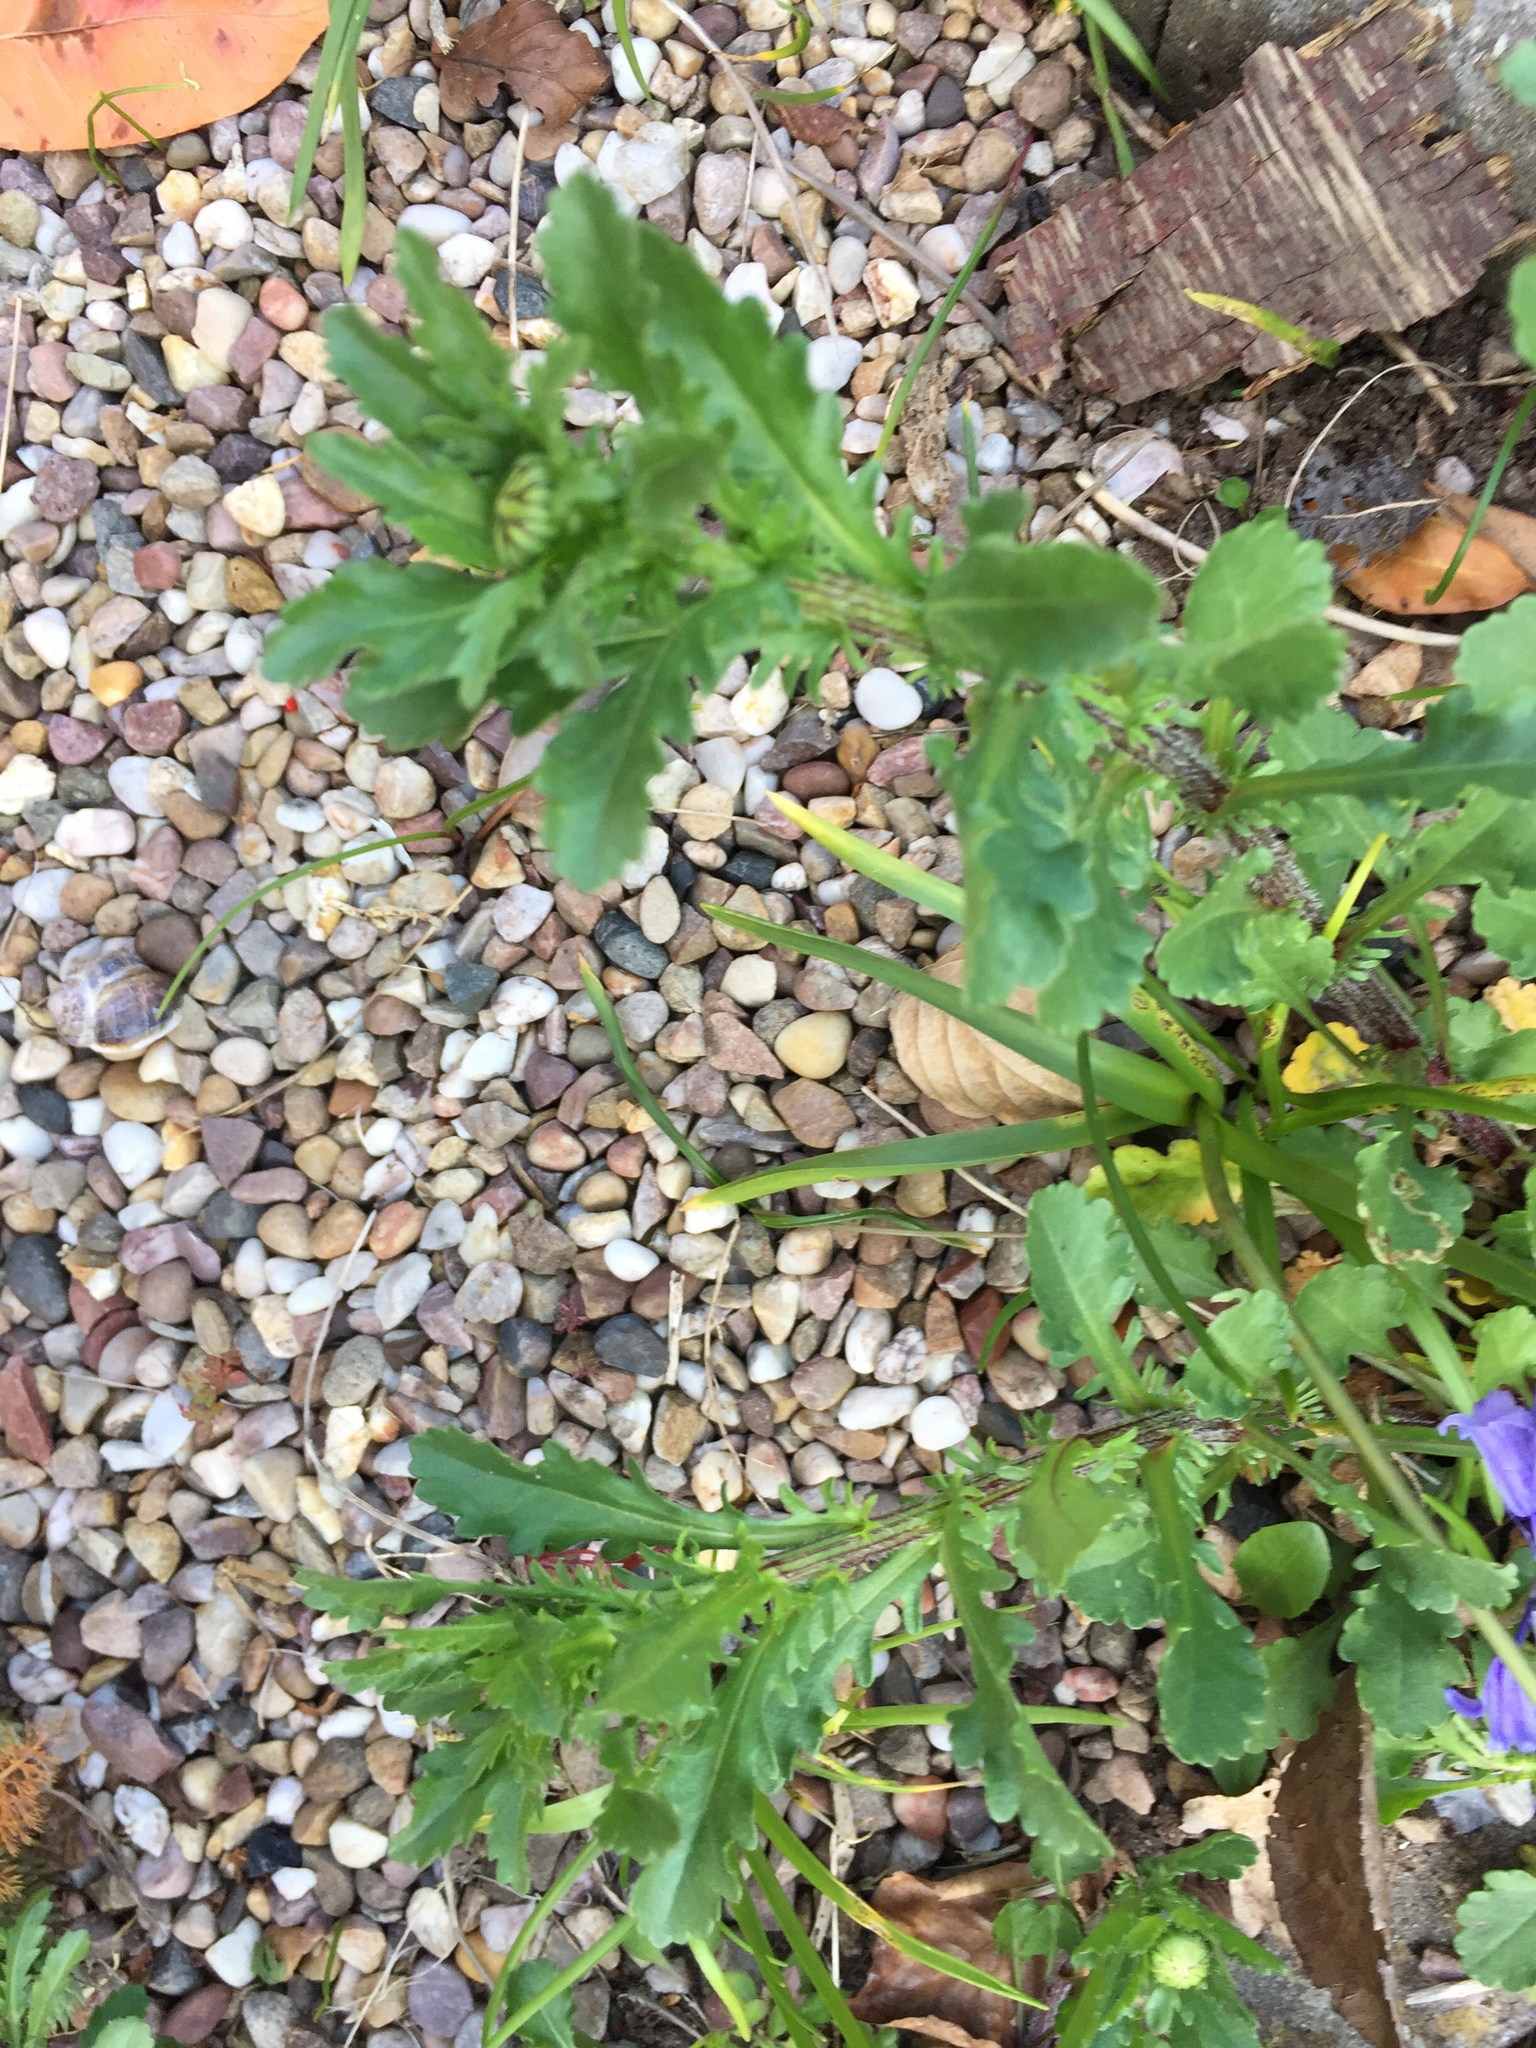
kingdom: Plantae
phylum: Tracheophyta
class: Magnoliopsida
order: Asterales
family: Asteraceae
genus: Leucanthemum
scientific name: Leucanthemum vulgare
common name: Oxeye daisy
